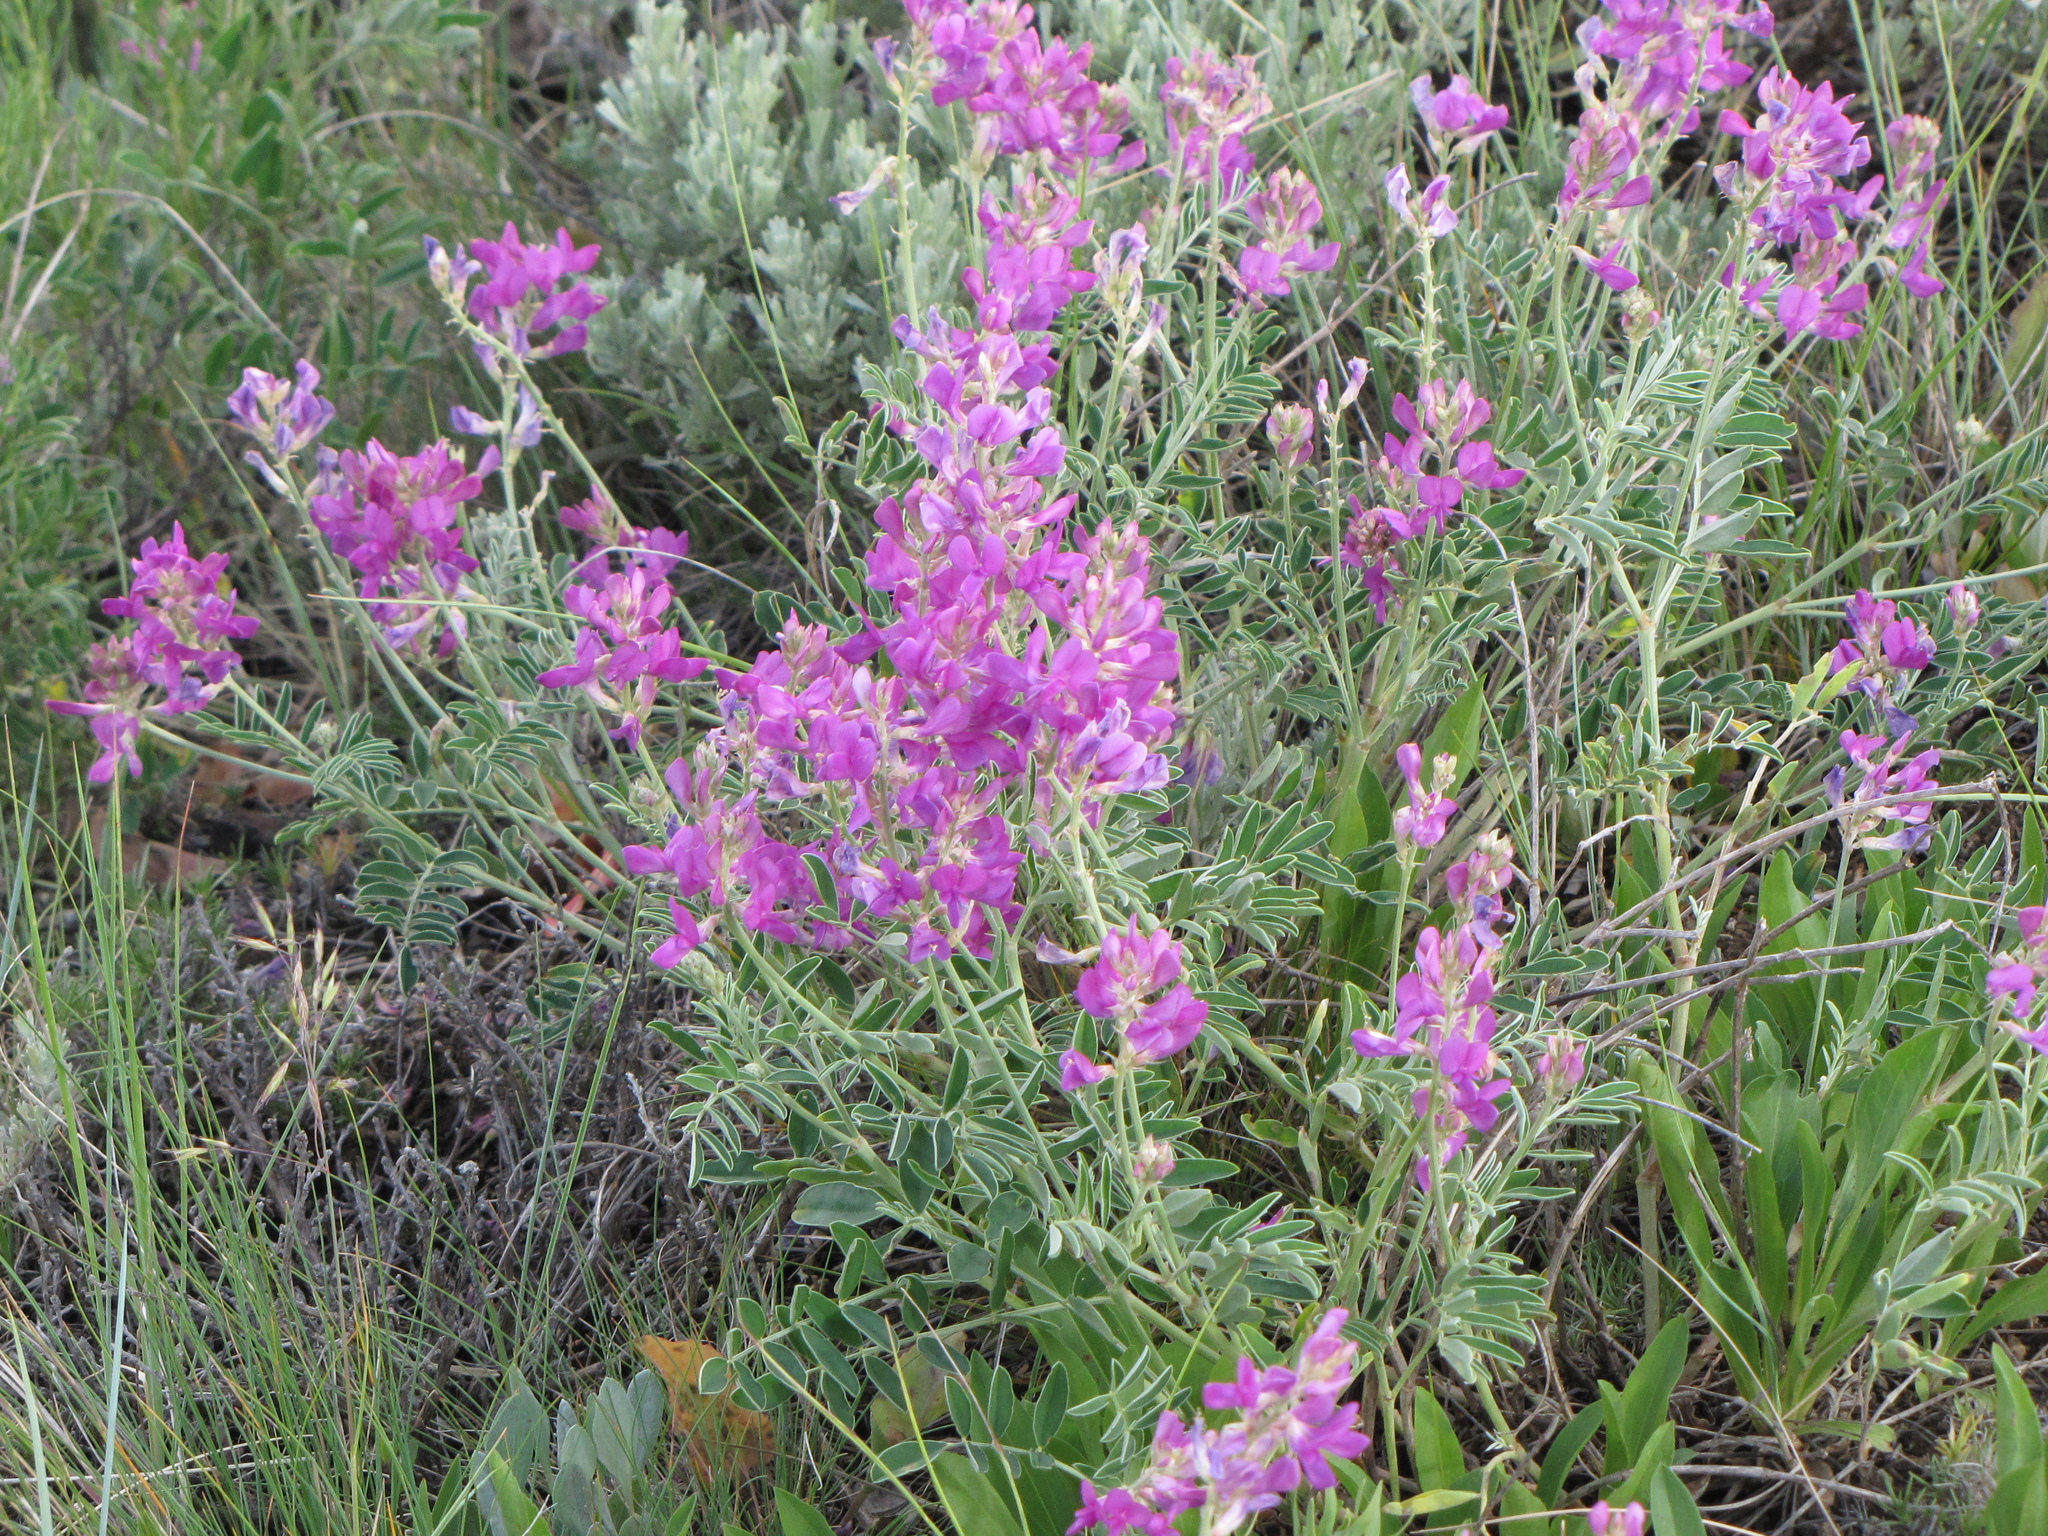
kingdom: Plantae
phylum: Tracheophyta
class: Magnoliopsida
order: Fabales
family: Fabaceae
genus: Hedysarum
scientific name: Hedysarum boreale
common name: Northern sweet-vetch
